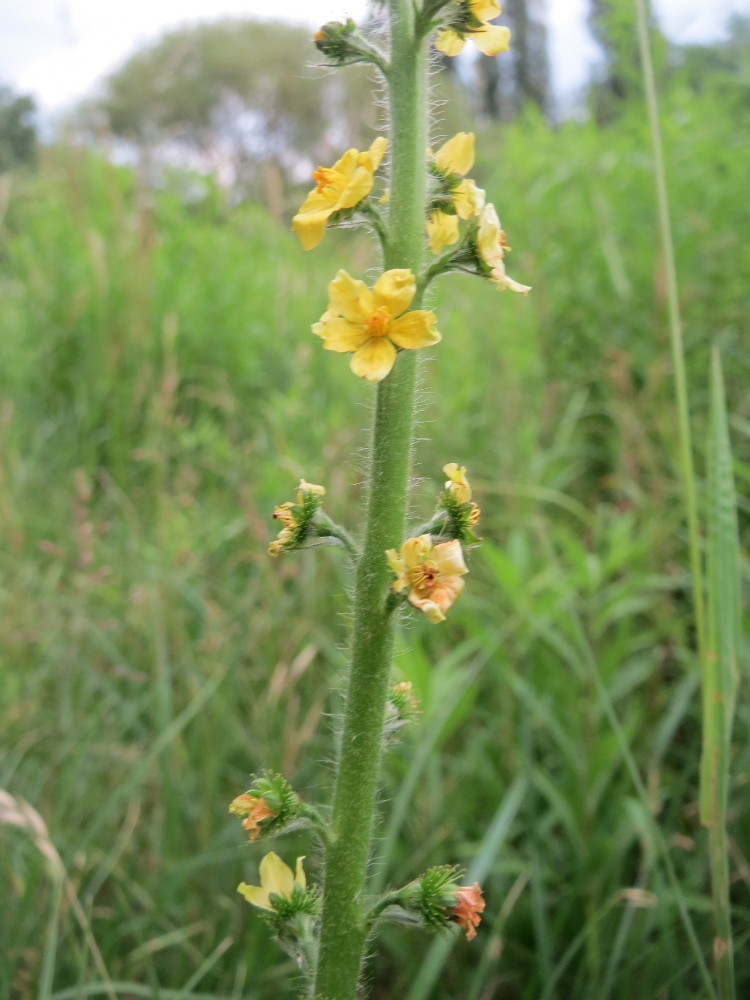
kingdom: Plantae
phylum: Tracheophyta
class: Magnoliopsida
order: Rosales
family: Rosaceae
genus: Agrimonia
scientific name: Agrimonia eupatoria
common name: Agrimony
